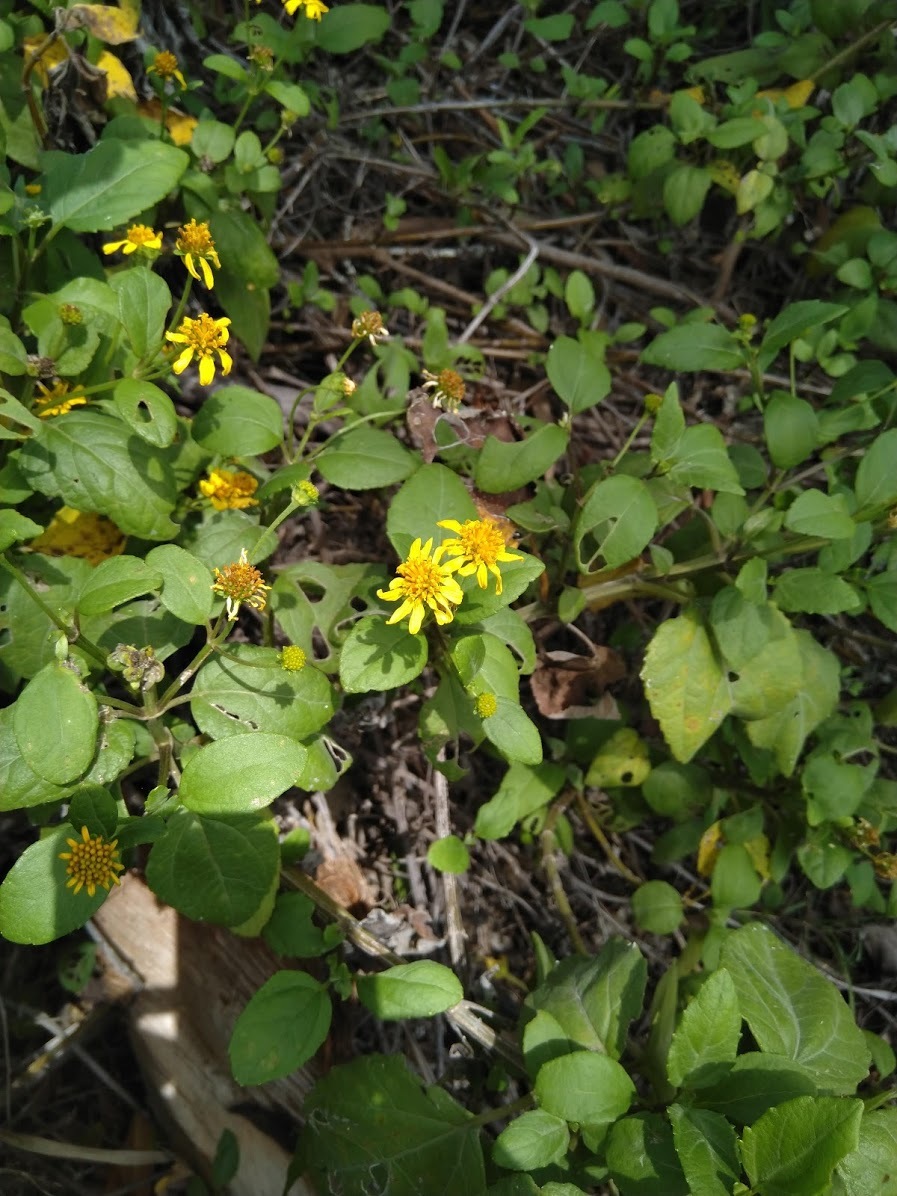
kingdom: Plantae
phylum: Tracheophyta
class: Magnoliopsida
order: Asterales
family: Asteraceae
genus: Wollastonia
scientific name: Wollastonia uniflora
